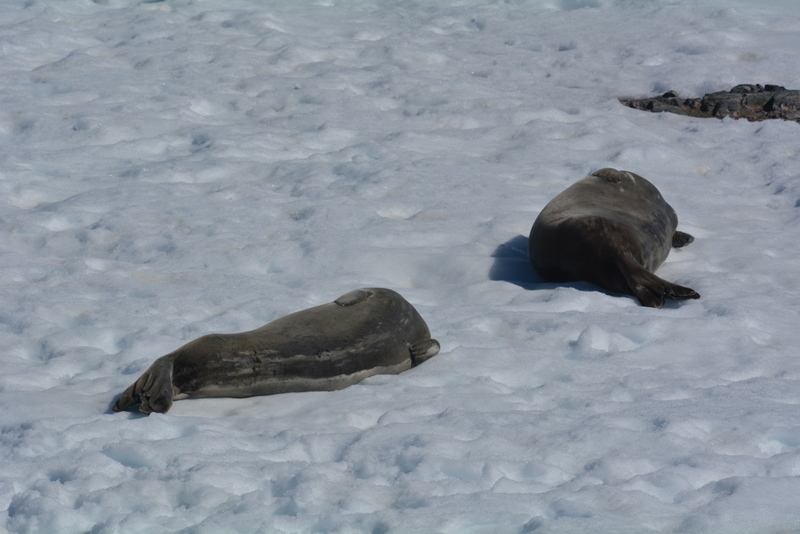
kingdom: Animalia
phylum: Chordata
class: Mammalia
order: Carnivora
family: Phocidae
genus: Leptonychotes
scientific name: Leptonychotes weddellii
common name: Weddell seal
